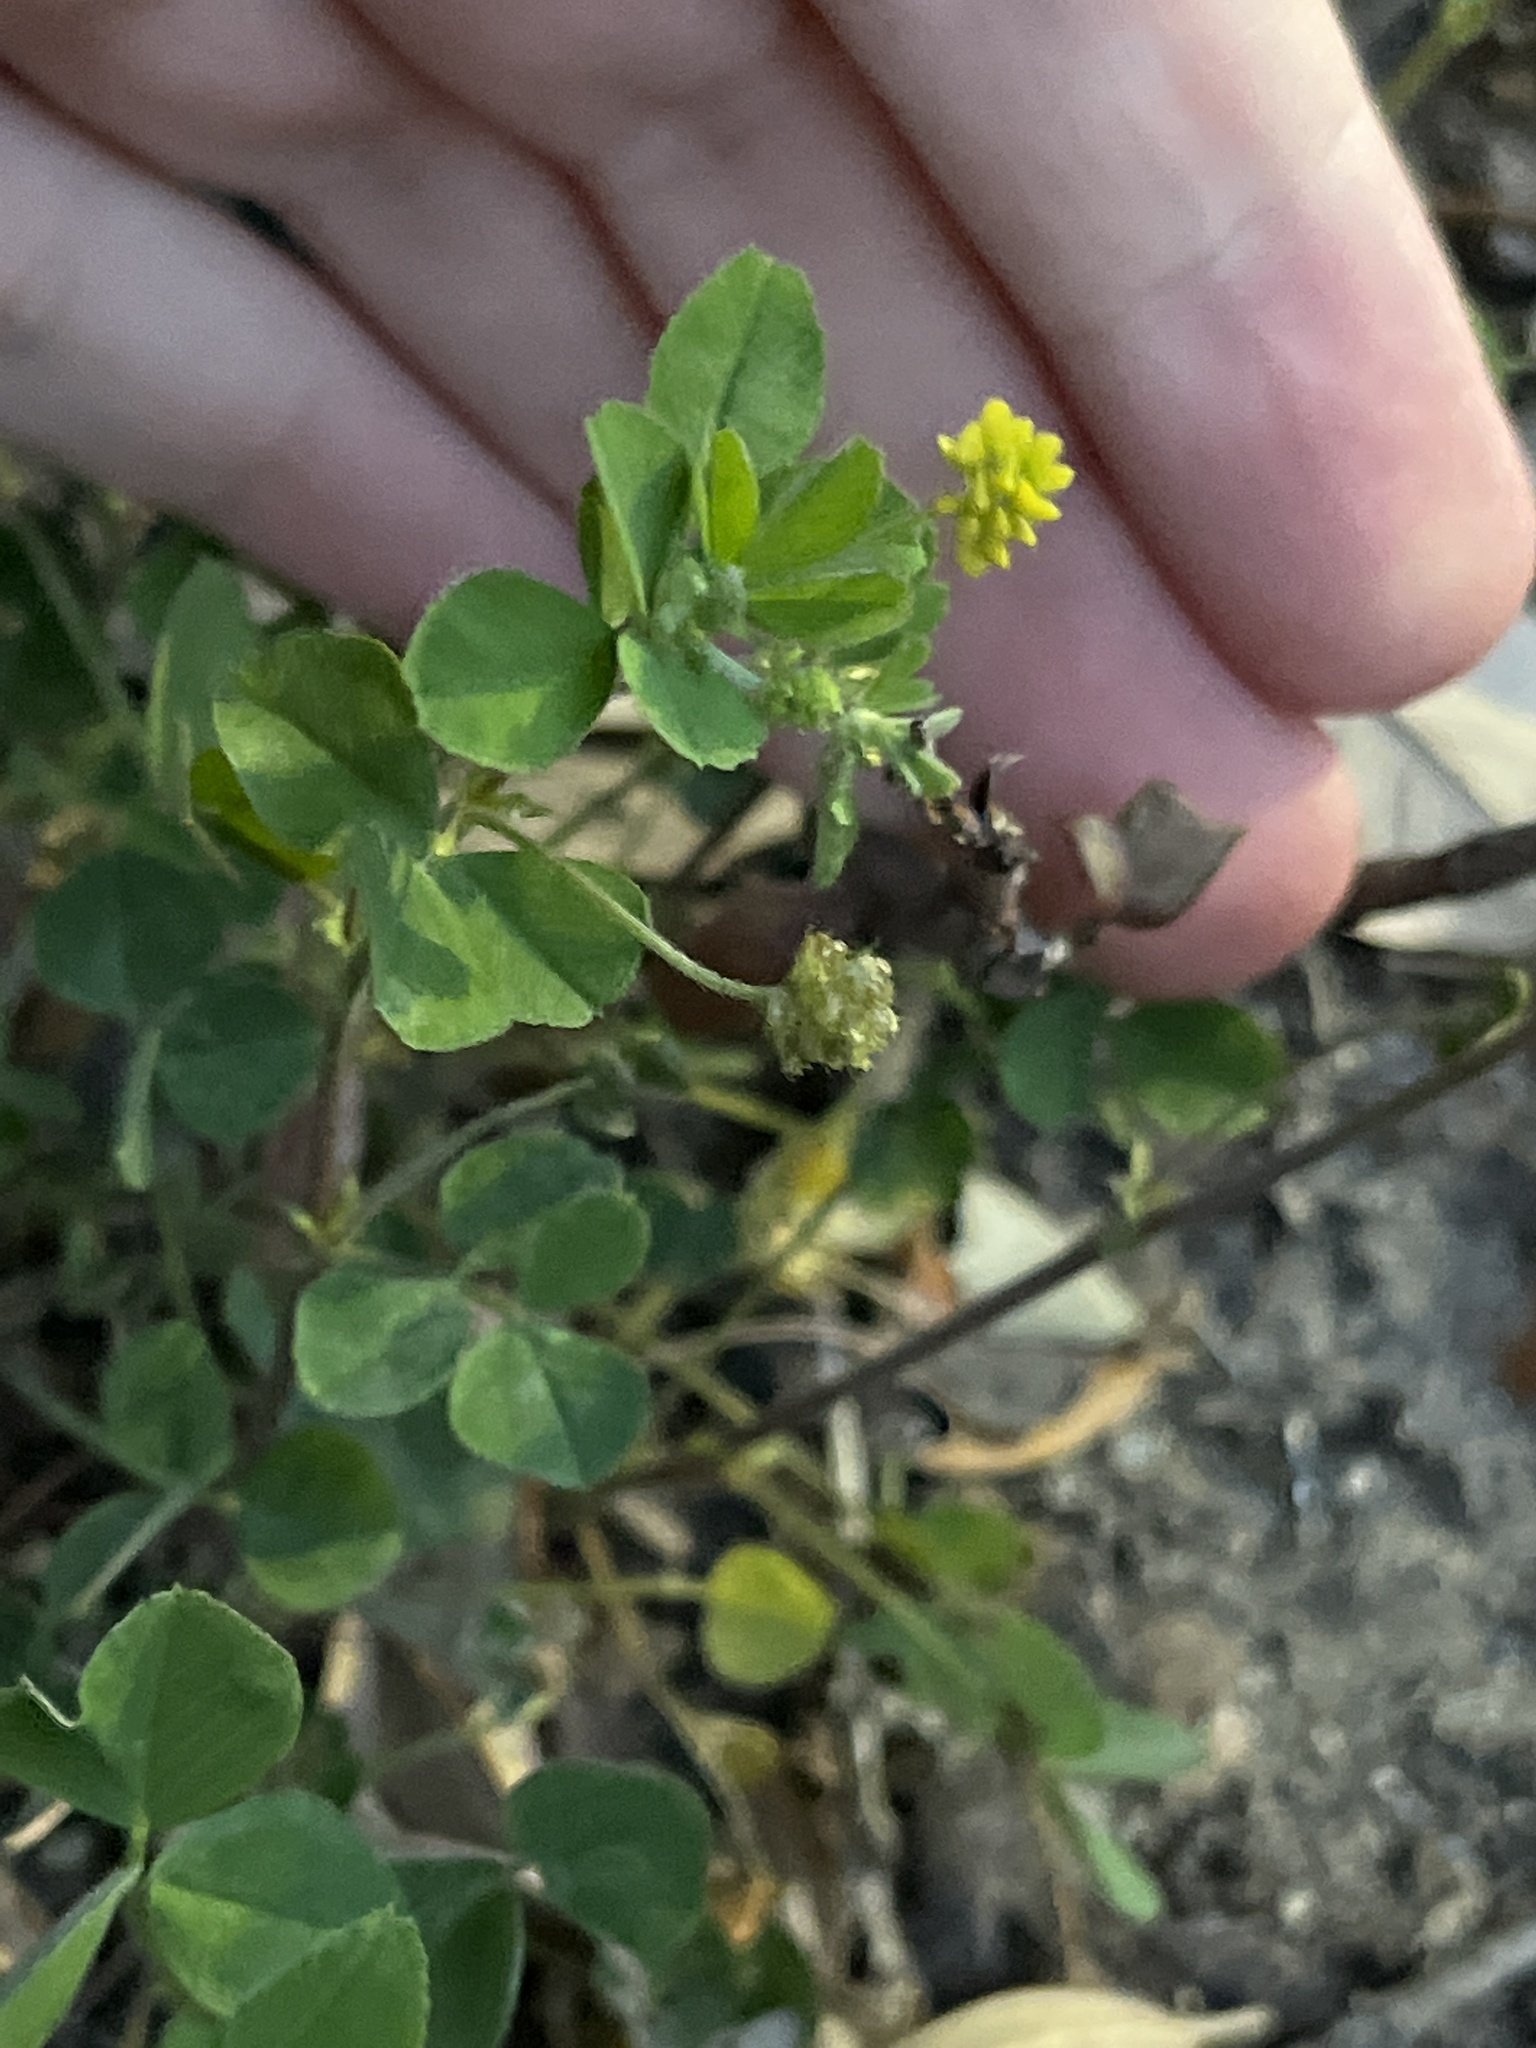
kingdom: Plantae
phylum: Tracheophyta
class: Magnoliopsida
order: Fabales
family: Fabaceae
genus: Medicago
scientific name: Medicago lupulina
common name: Black medick
